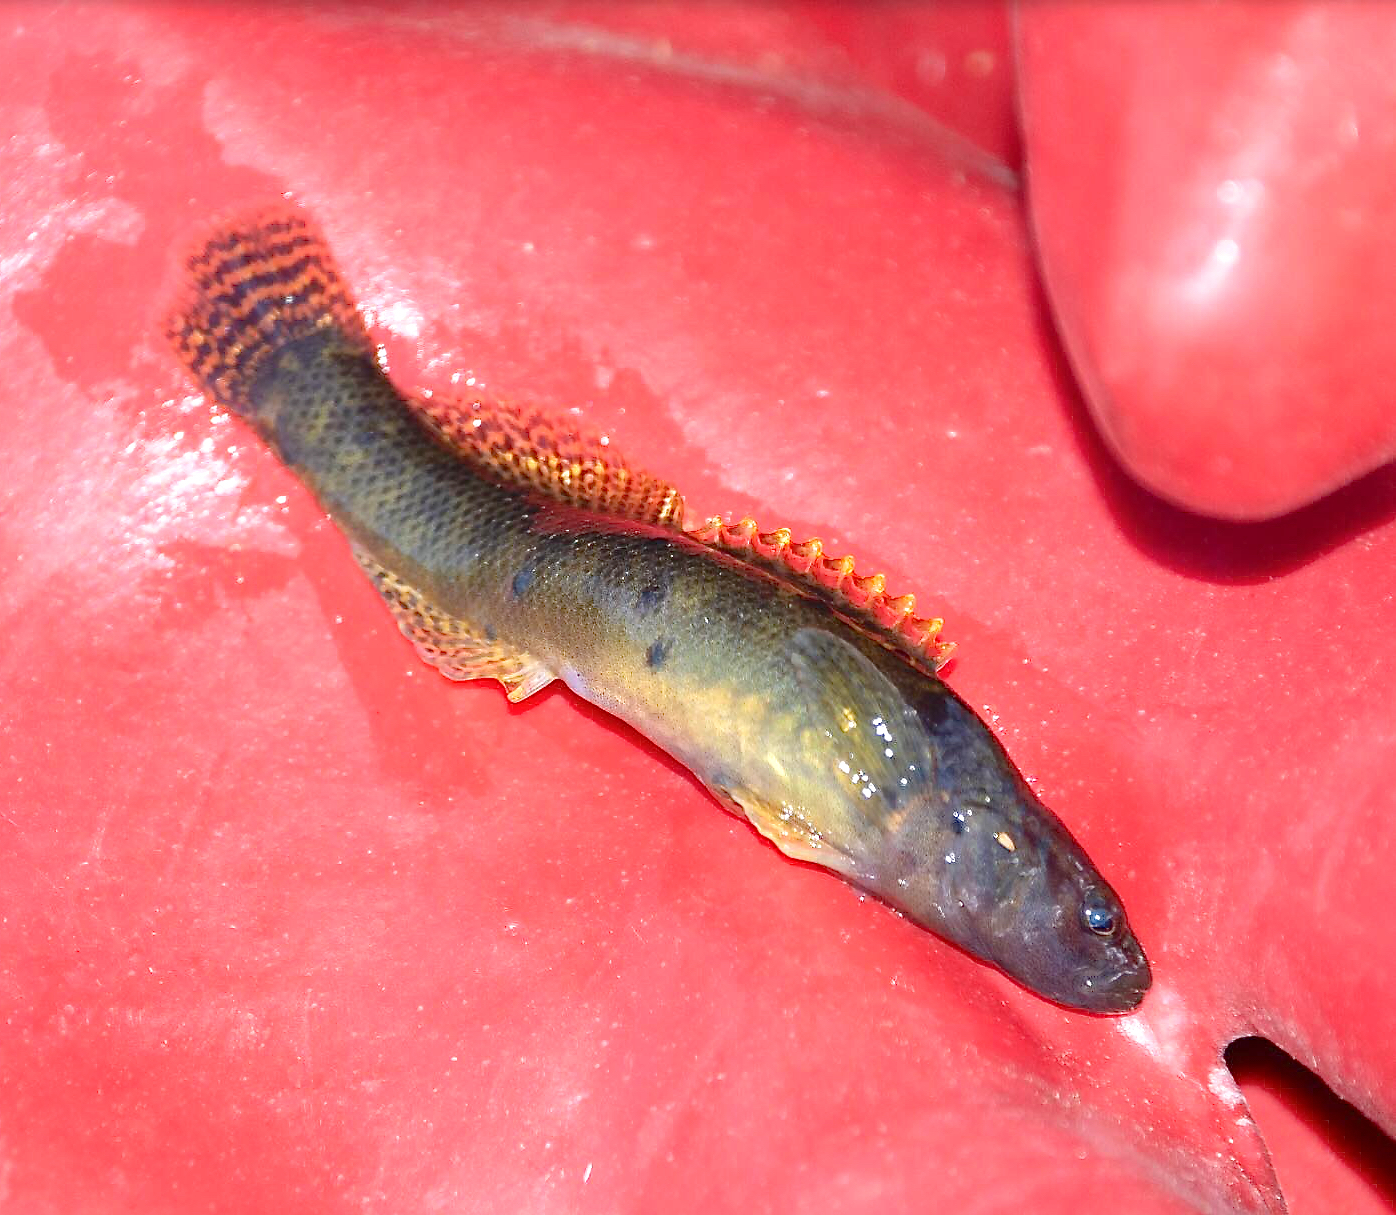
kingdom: Animalia
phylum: Chordata
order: Perciformes
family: Percidae
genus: Etheostoma
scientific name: Etheostoma flabellare
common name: Fantail darter
